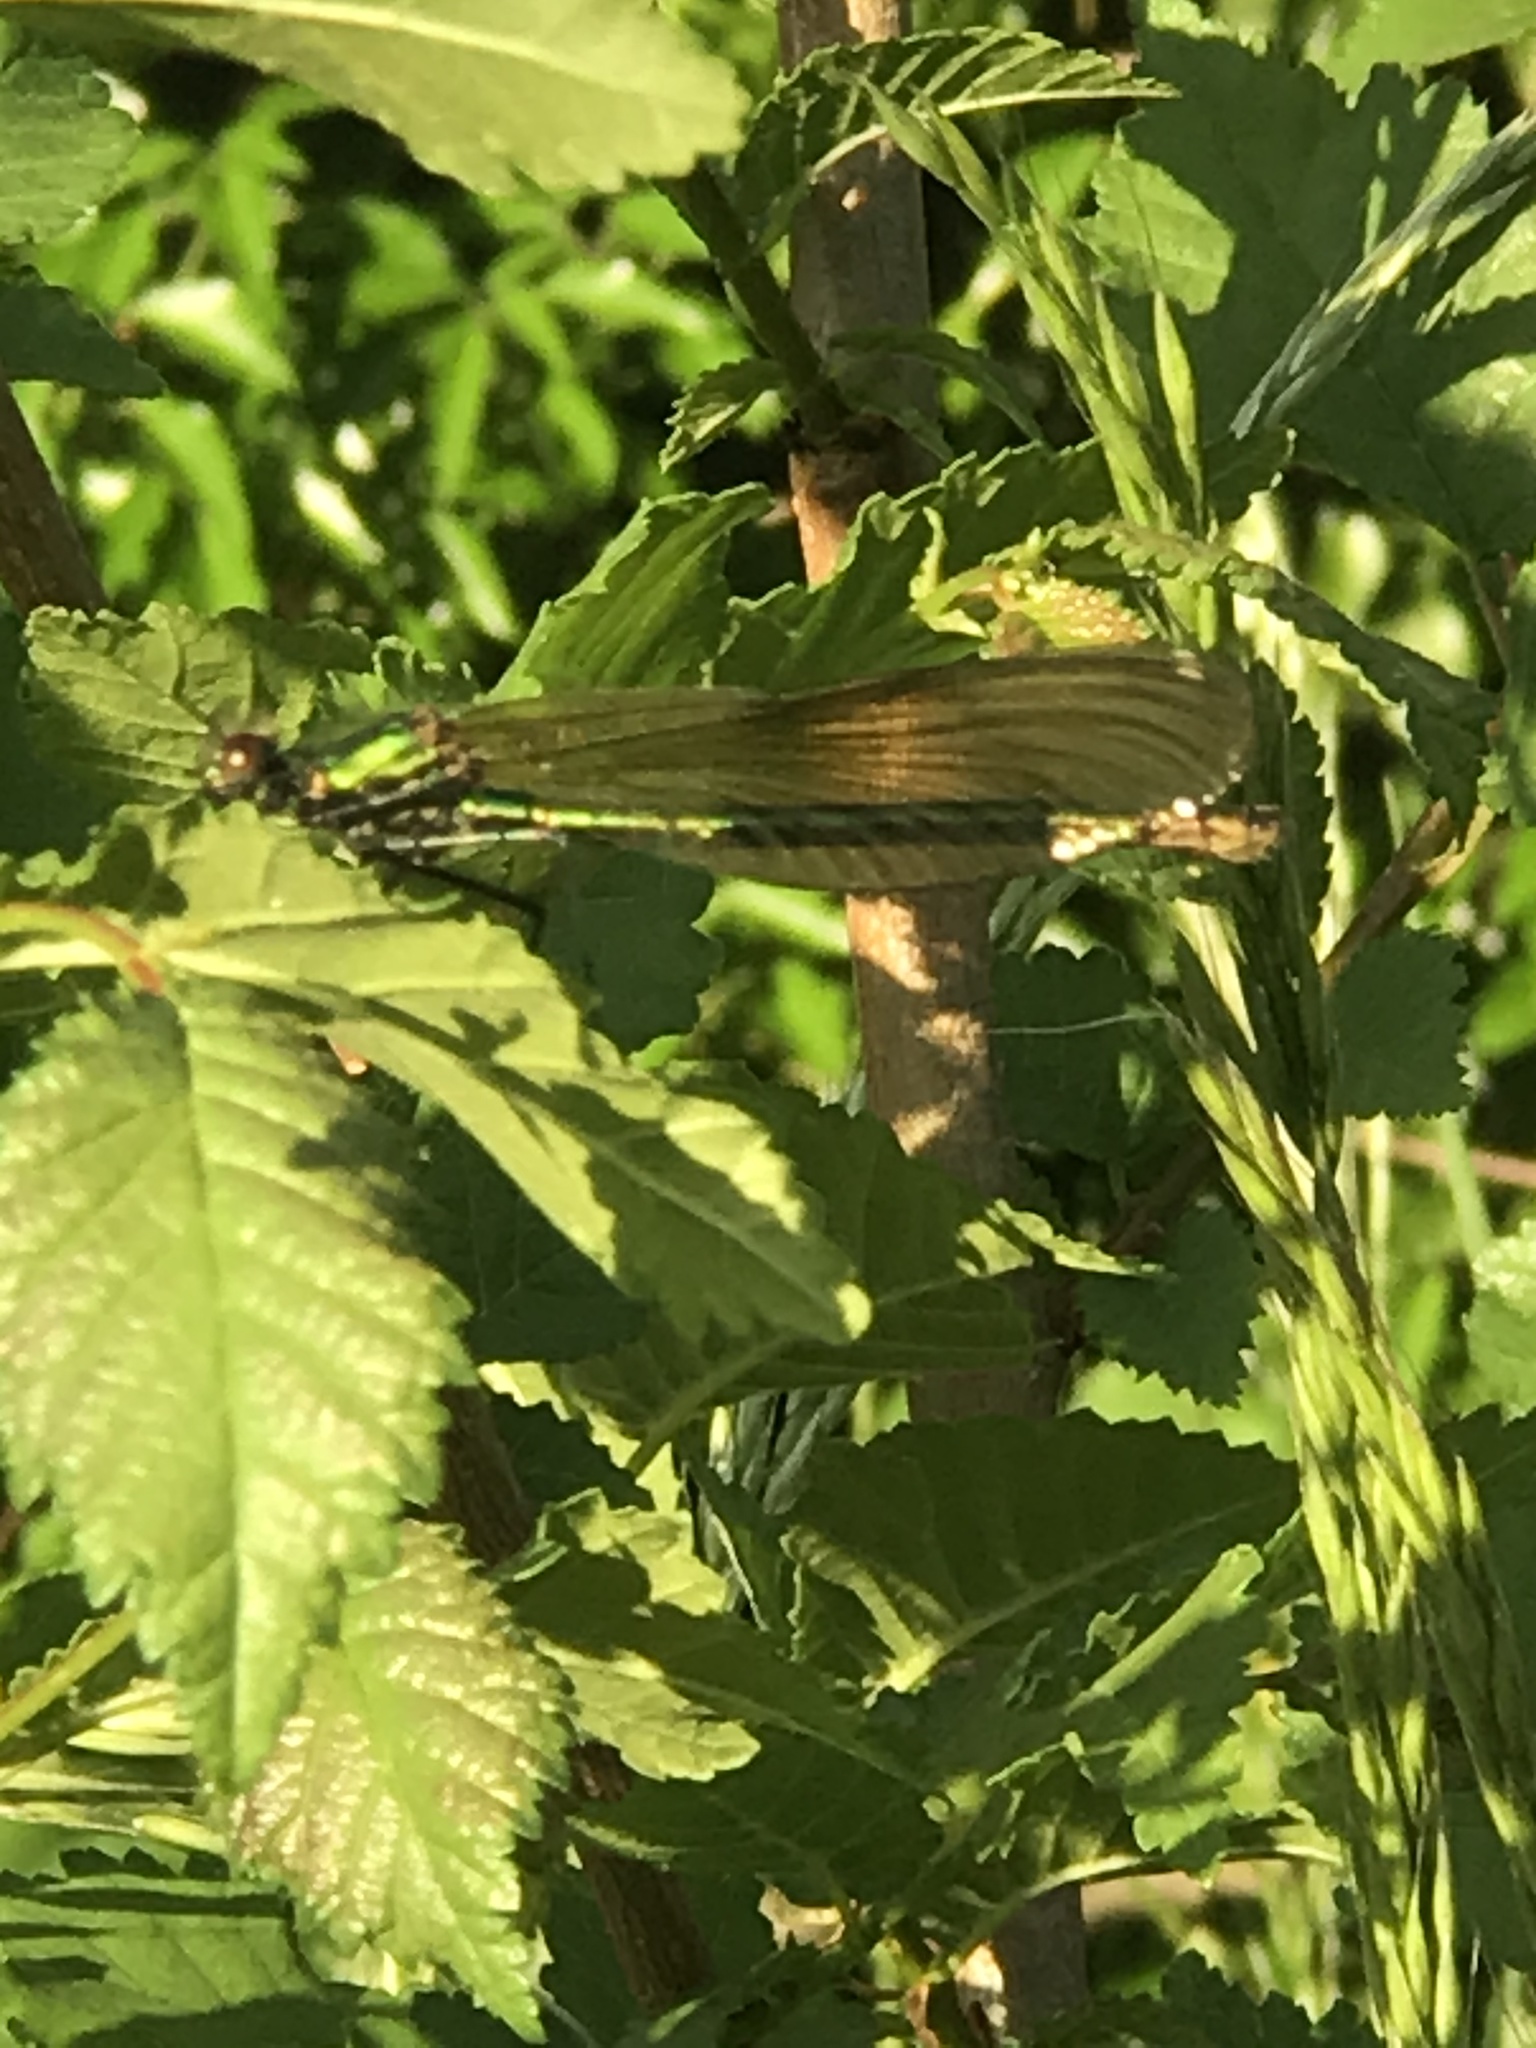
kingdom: Animalia
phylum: Arthropoda
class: Insecta
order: Odonata
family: Calopterygidae
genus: Calopteryx
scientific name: Calopteryx splendens
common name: Banded demoiselle
